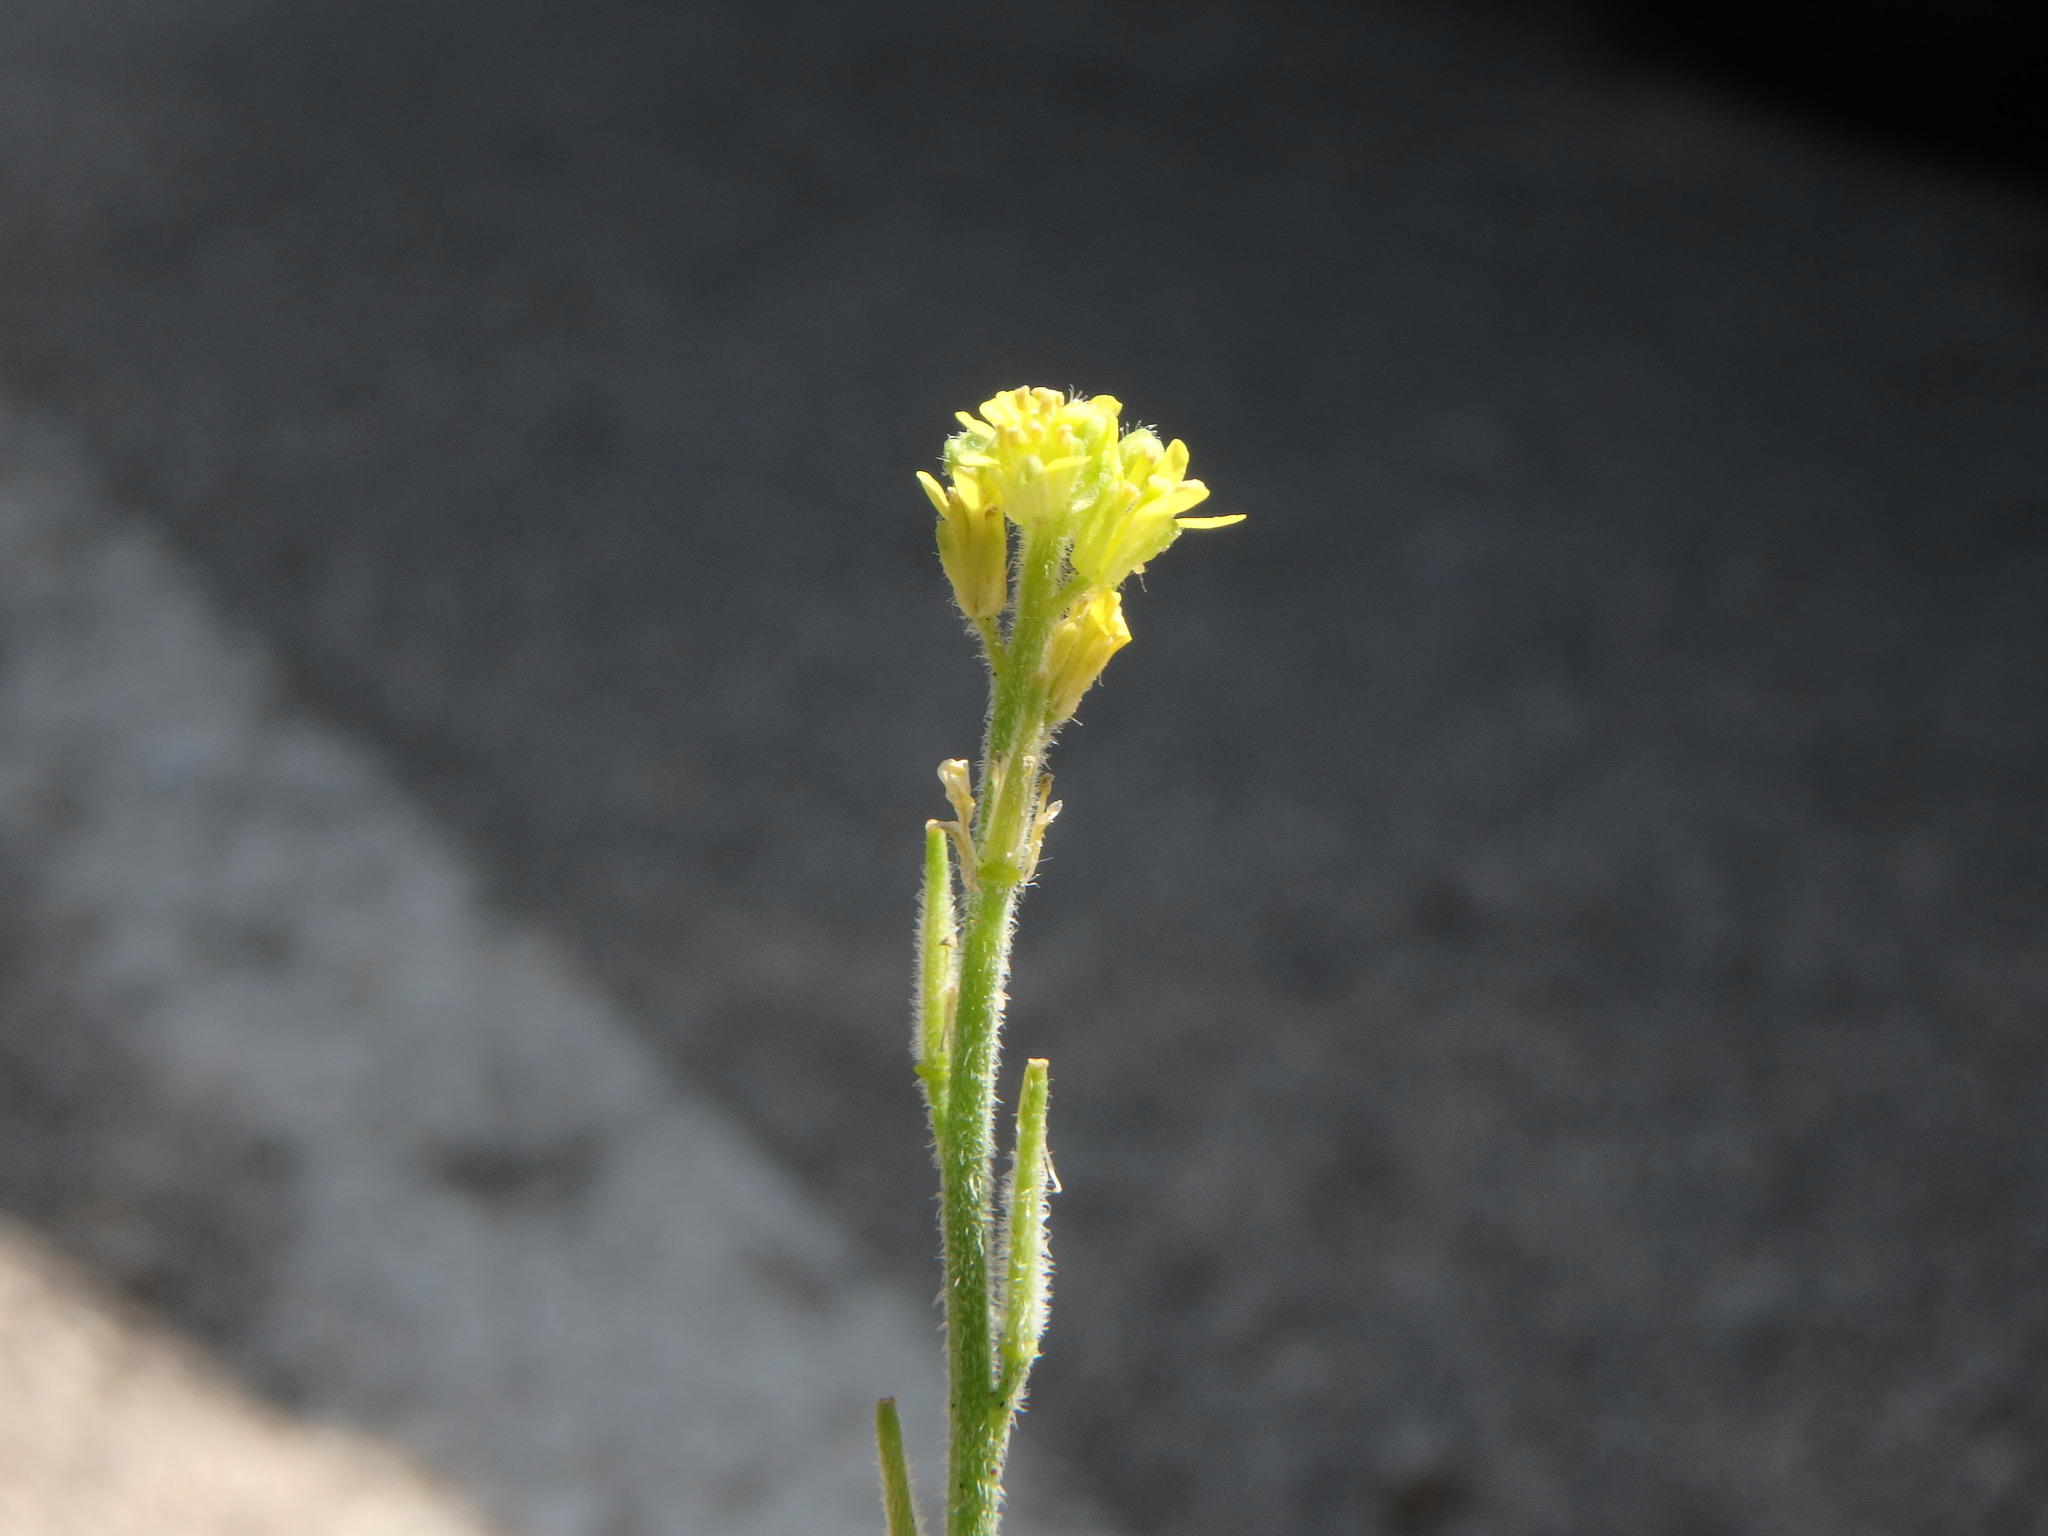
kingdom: Plantae
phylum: Tracheophyta
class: Magnoliopsida
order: Brassicales
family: Brassicaceae
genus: Sisymbrium
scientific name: Sisymbrium officinale
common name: Hedge mustard
